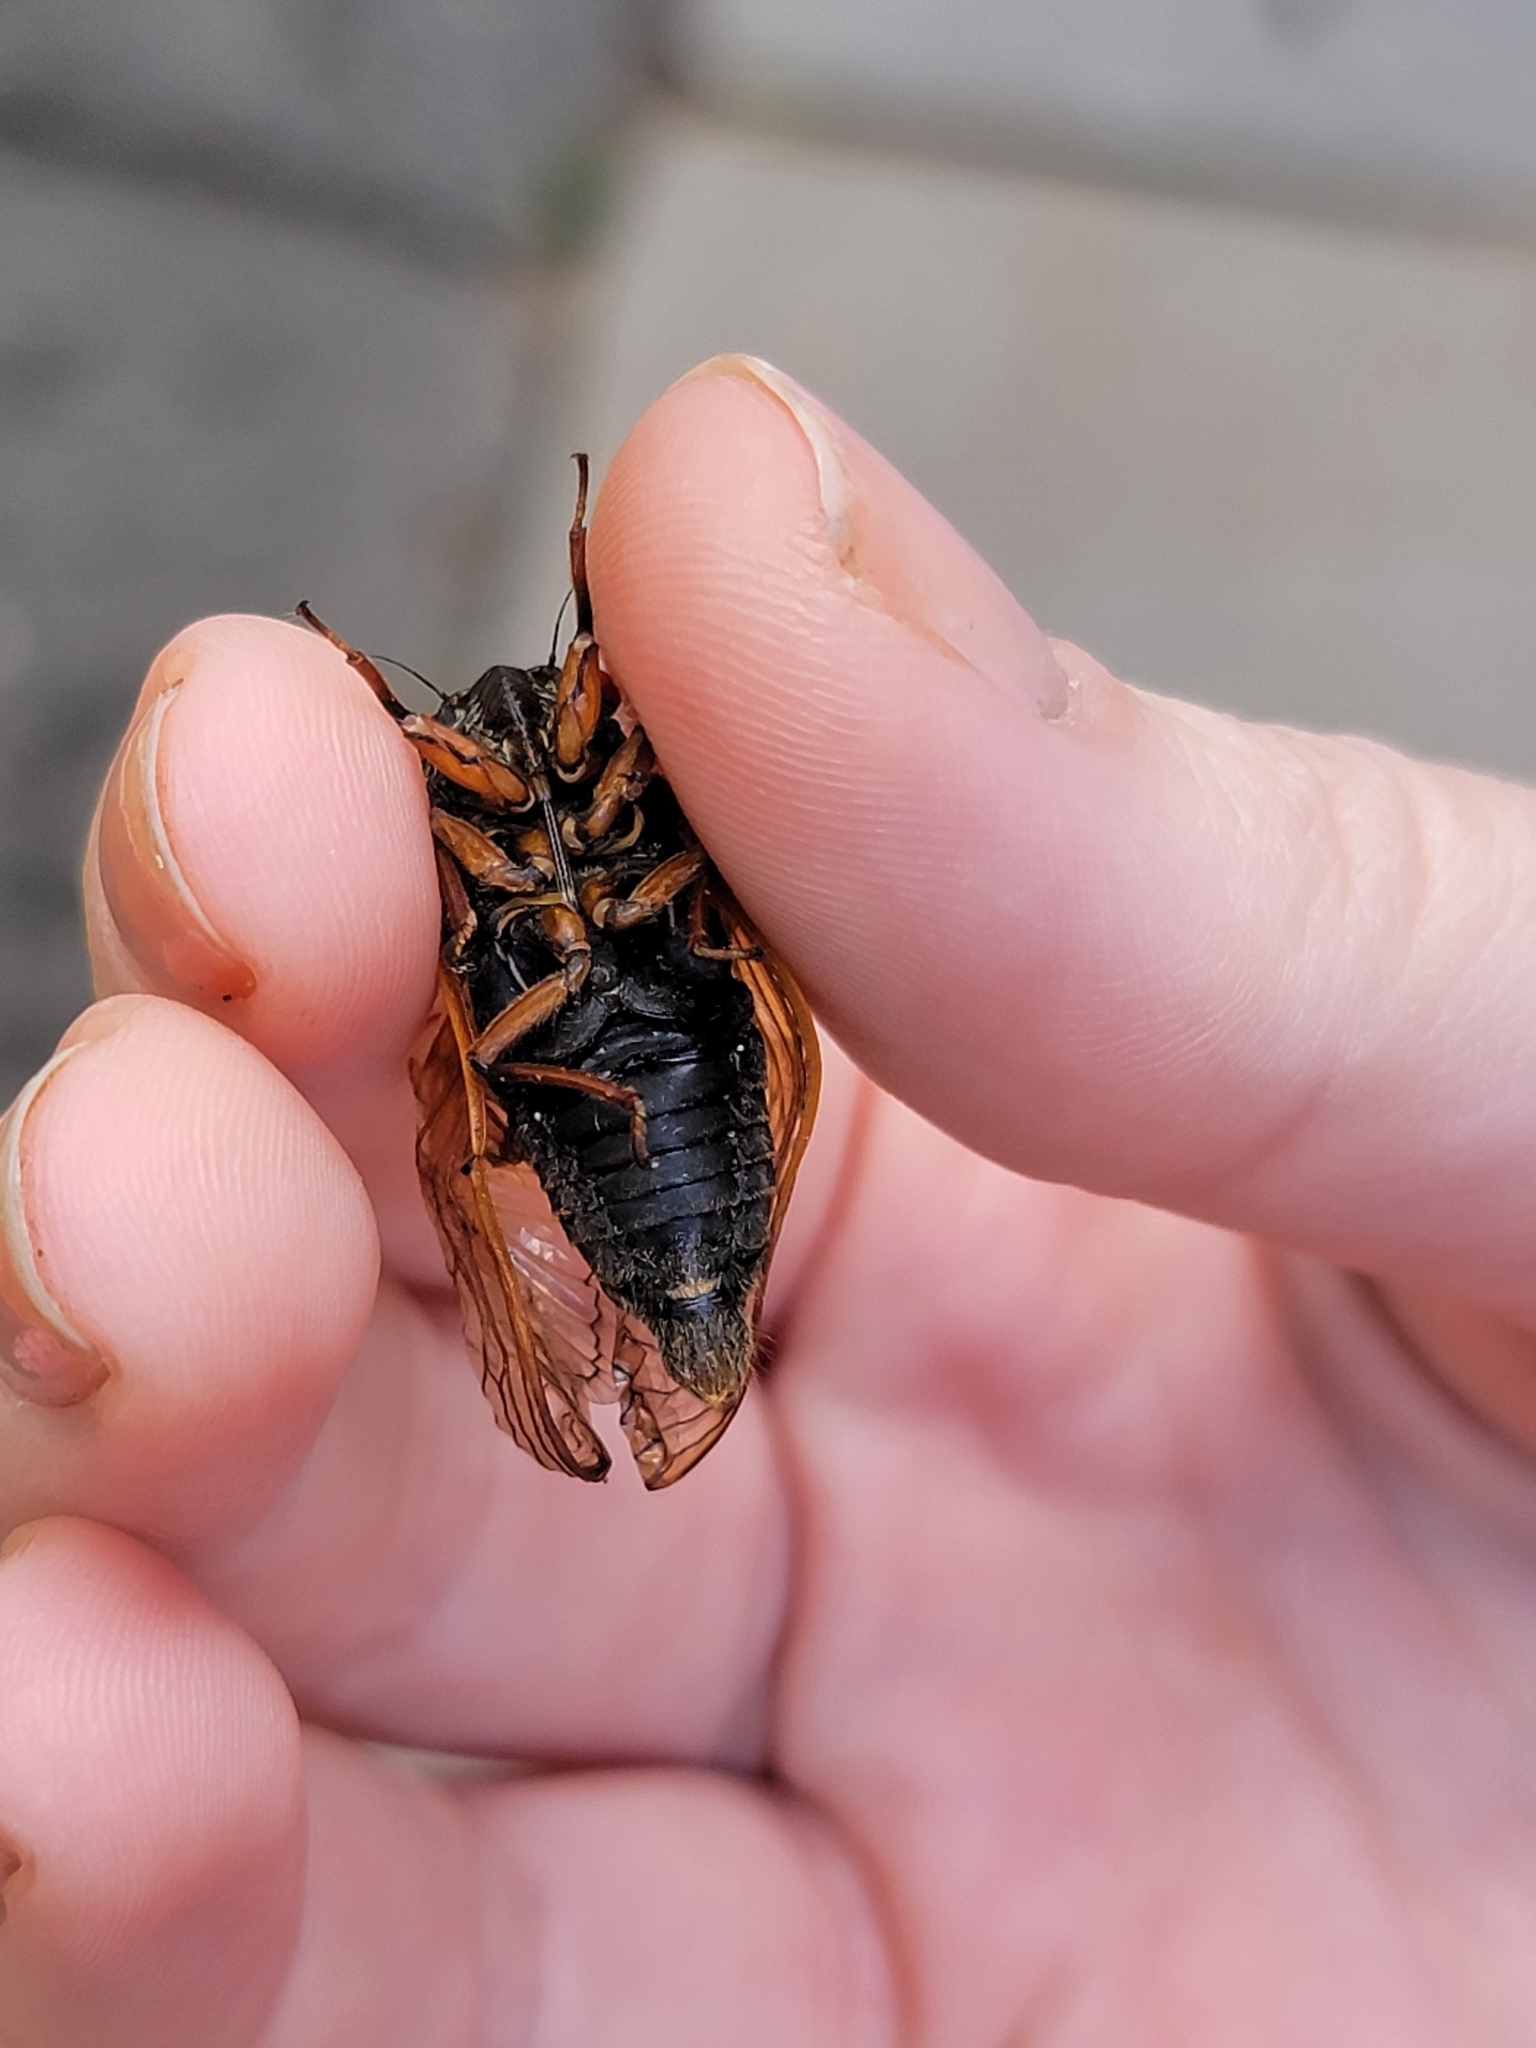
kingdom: Animalia
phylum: Arthropoda
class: Insecta
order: Hemiptera
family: Cicadidae
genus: Magicicada
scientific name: Magicicada cassini
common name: Cassin's 17-year cicada
